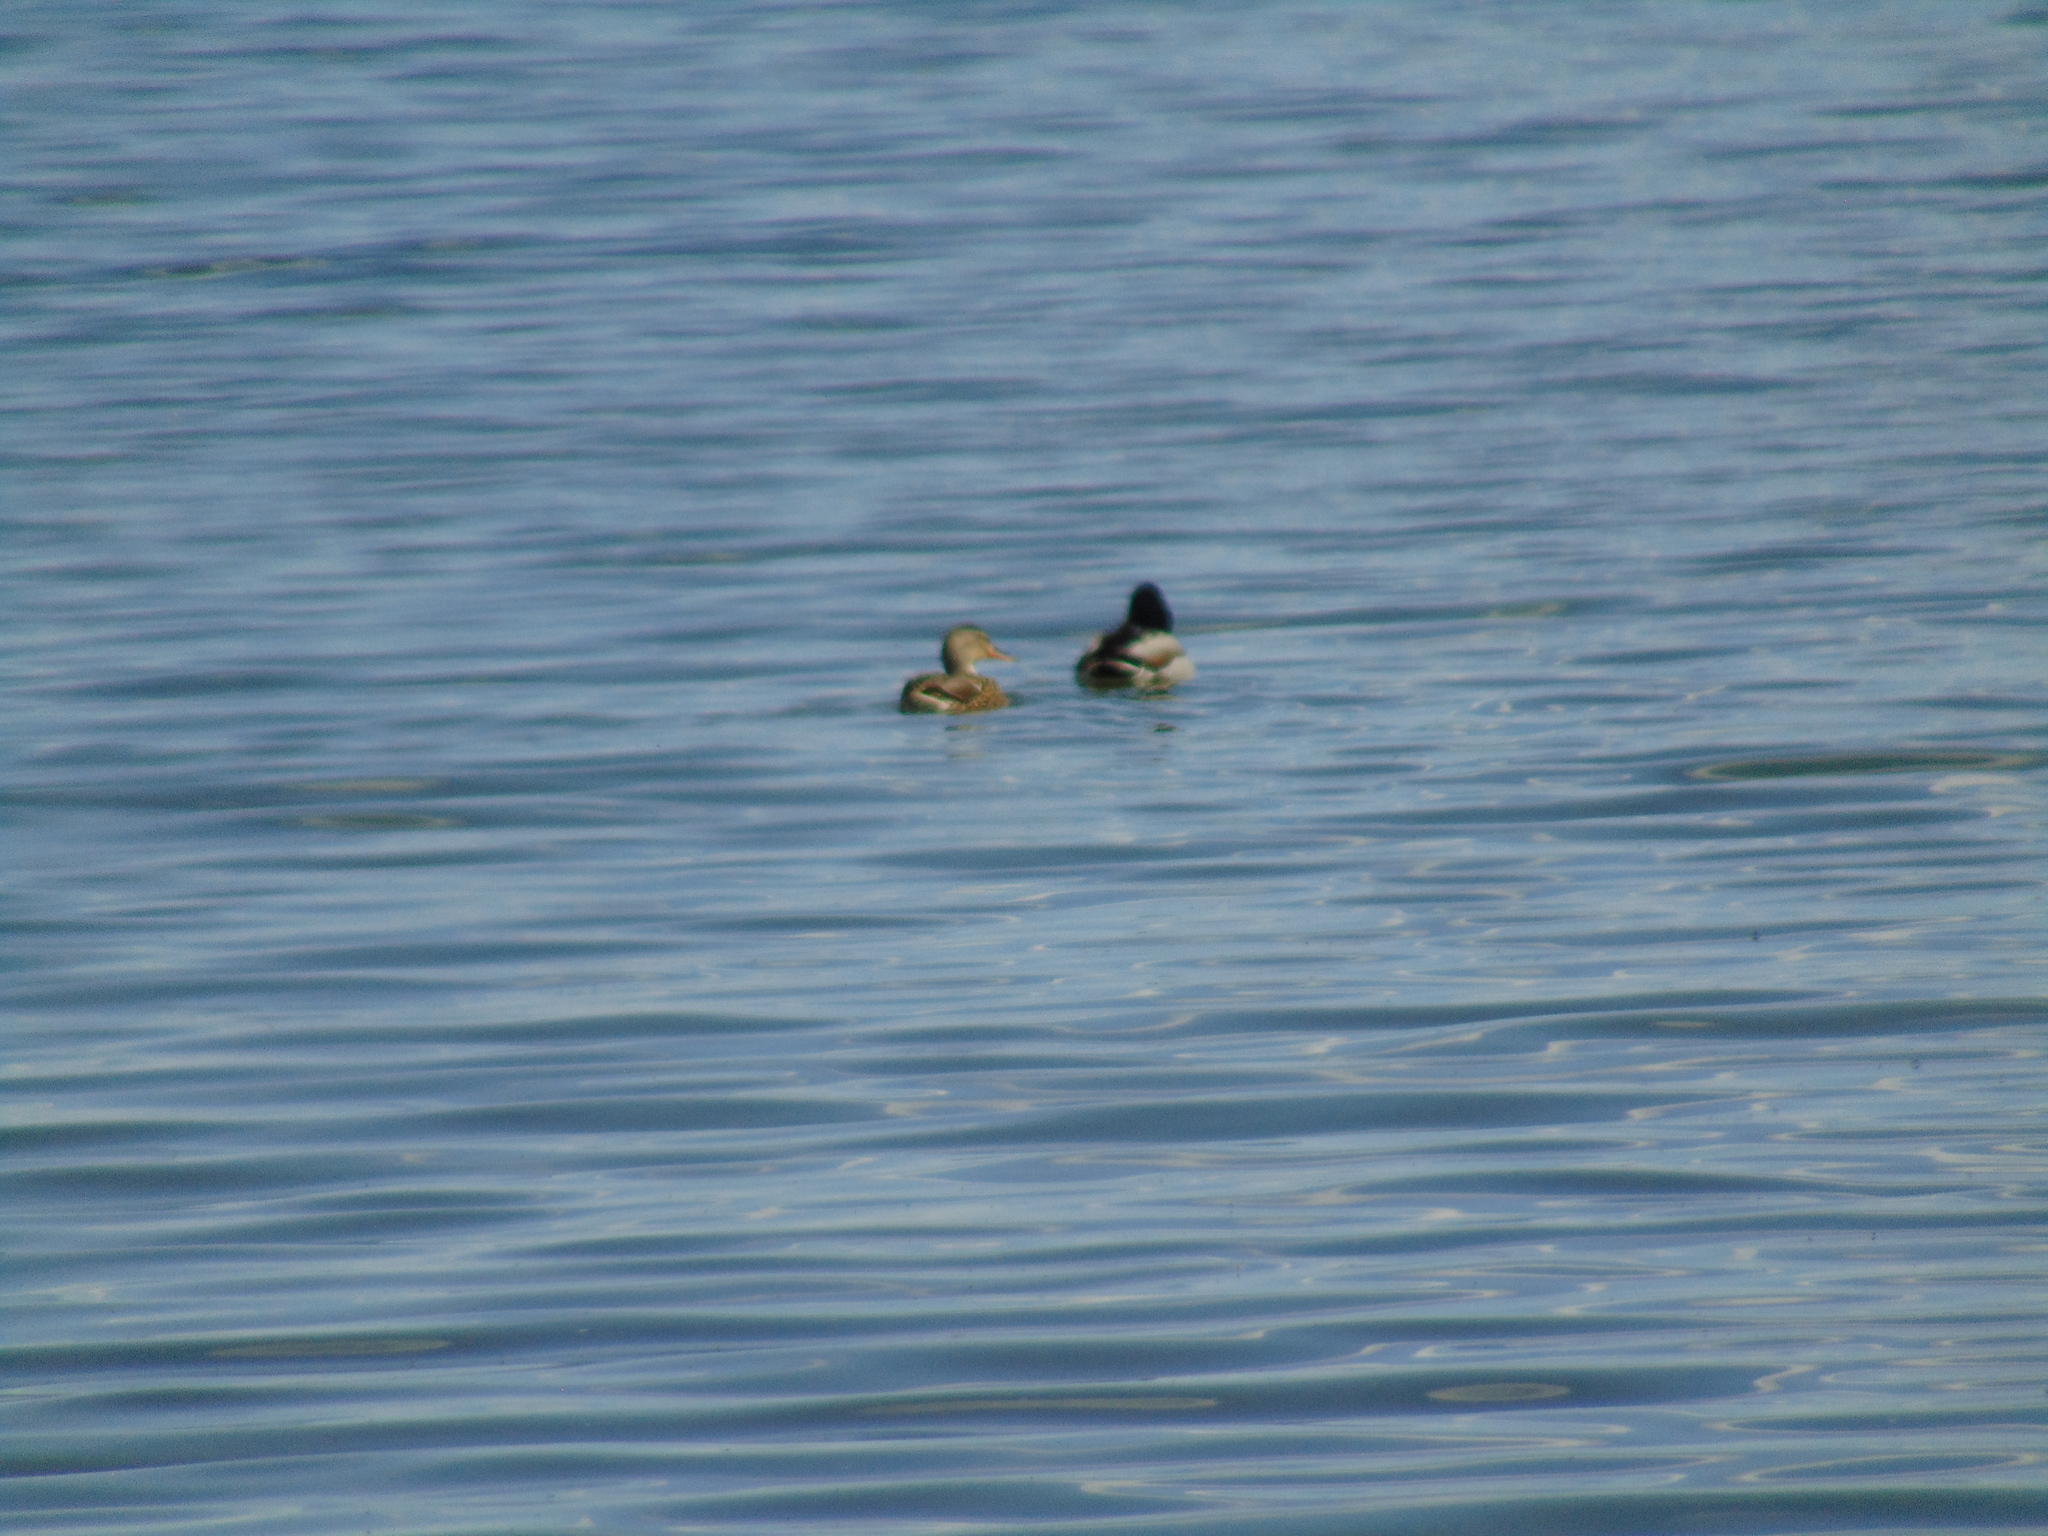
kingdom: Animalia
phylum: Chordata
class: Aves
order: Anseriformes
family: Anatidae
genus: Anas
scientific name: Anas platyrhynchos
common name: Mallard
